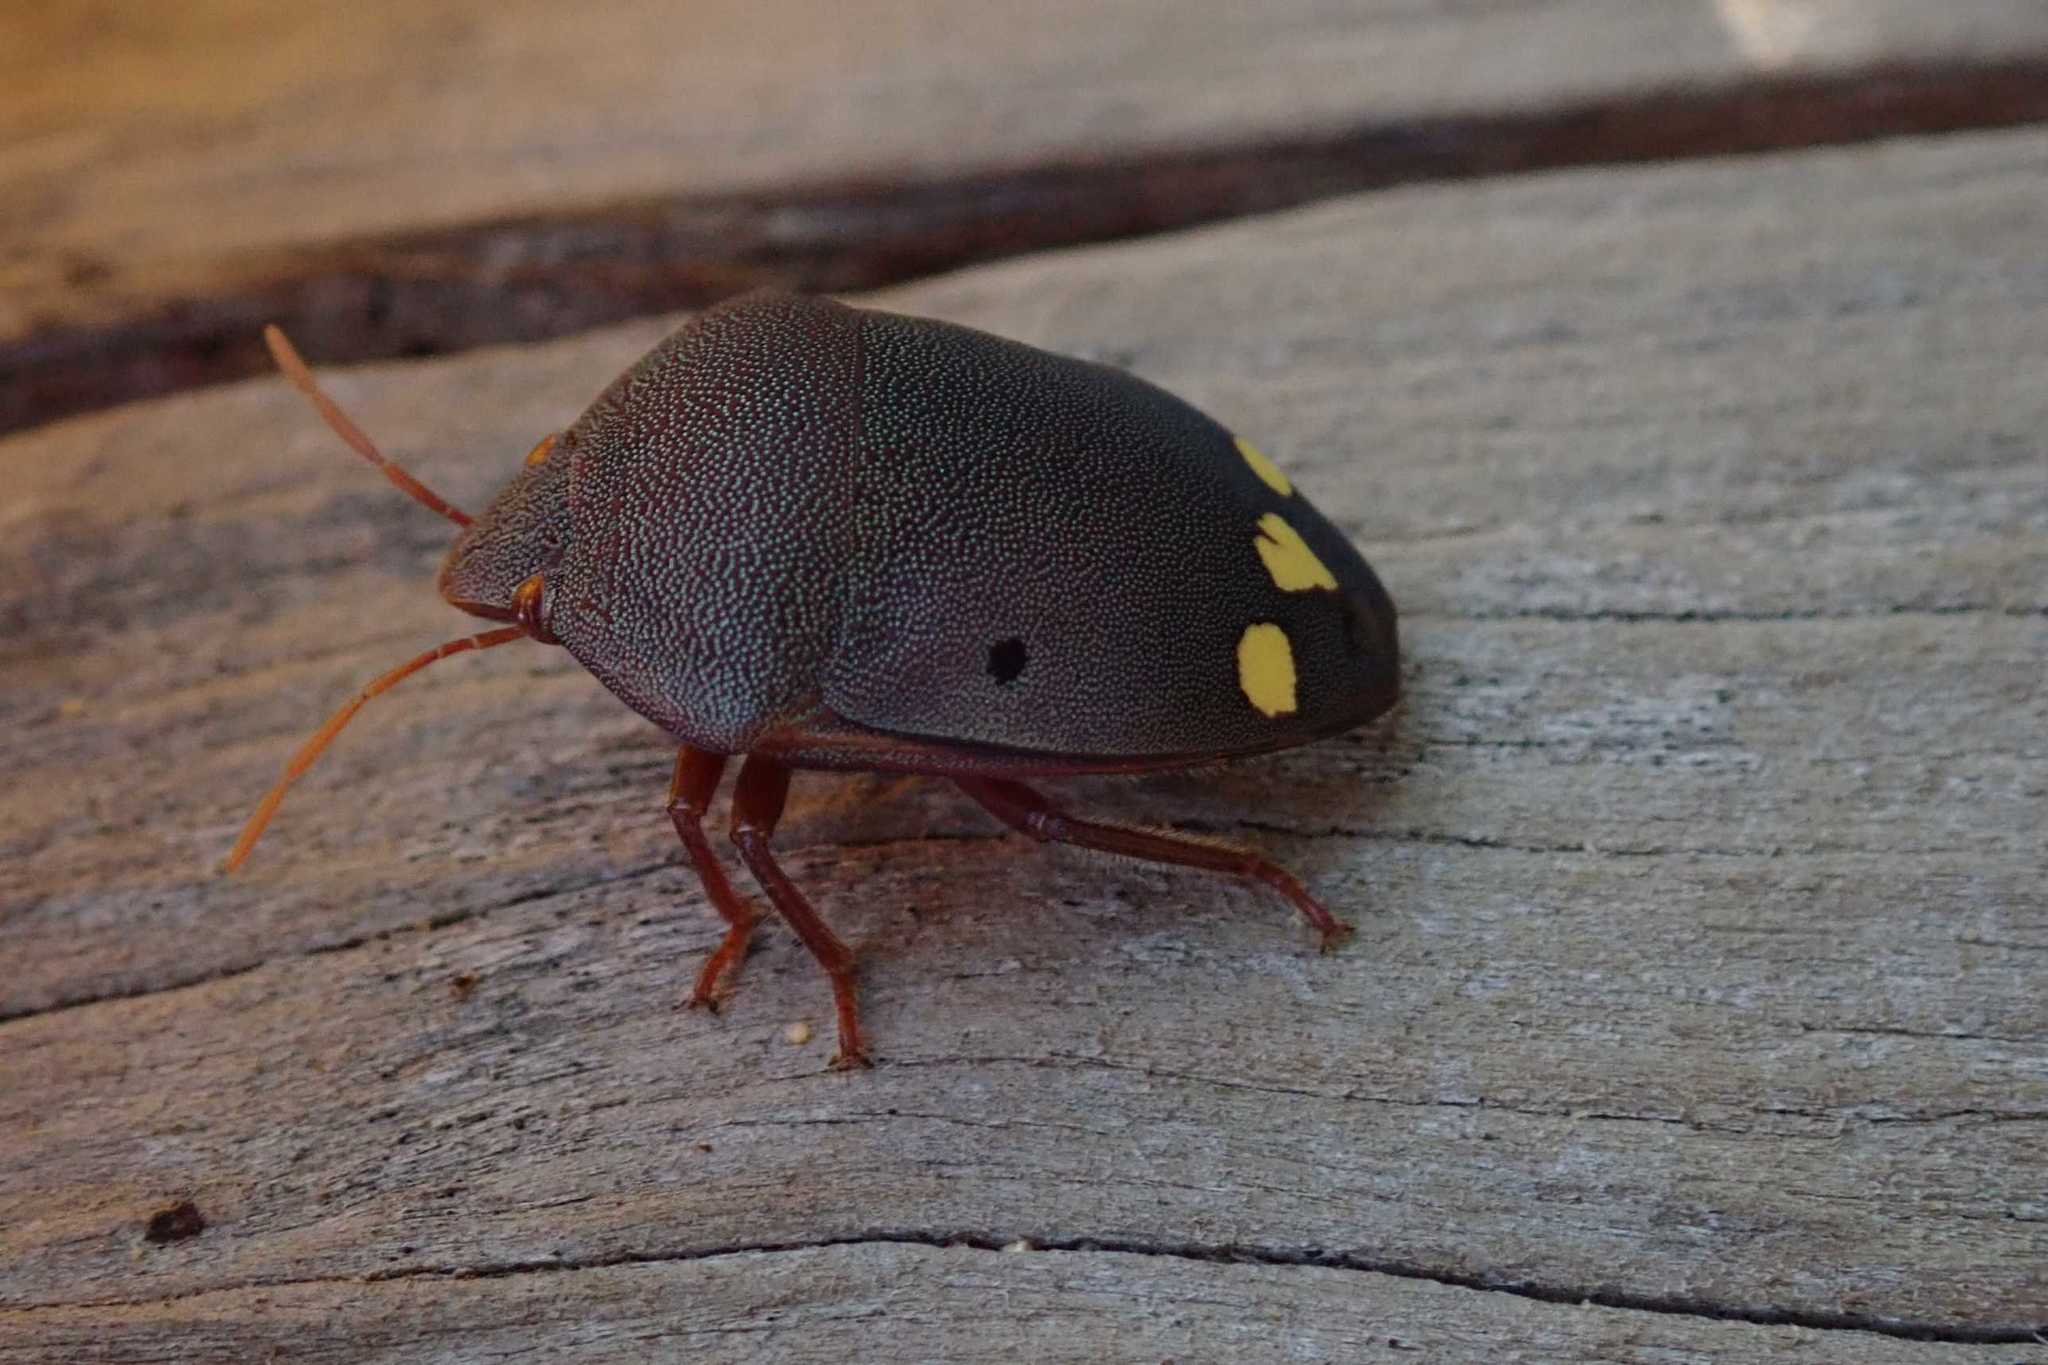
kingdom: Animalia
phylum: Arthropoda
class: Insecta
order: Hemiptera
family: Scutelleridae
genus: Solenosthedium
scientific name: Solenosthedium
